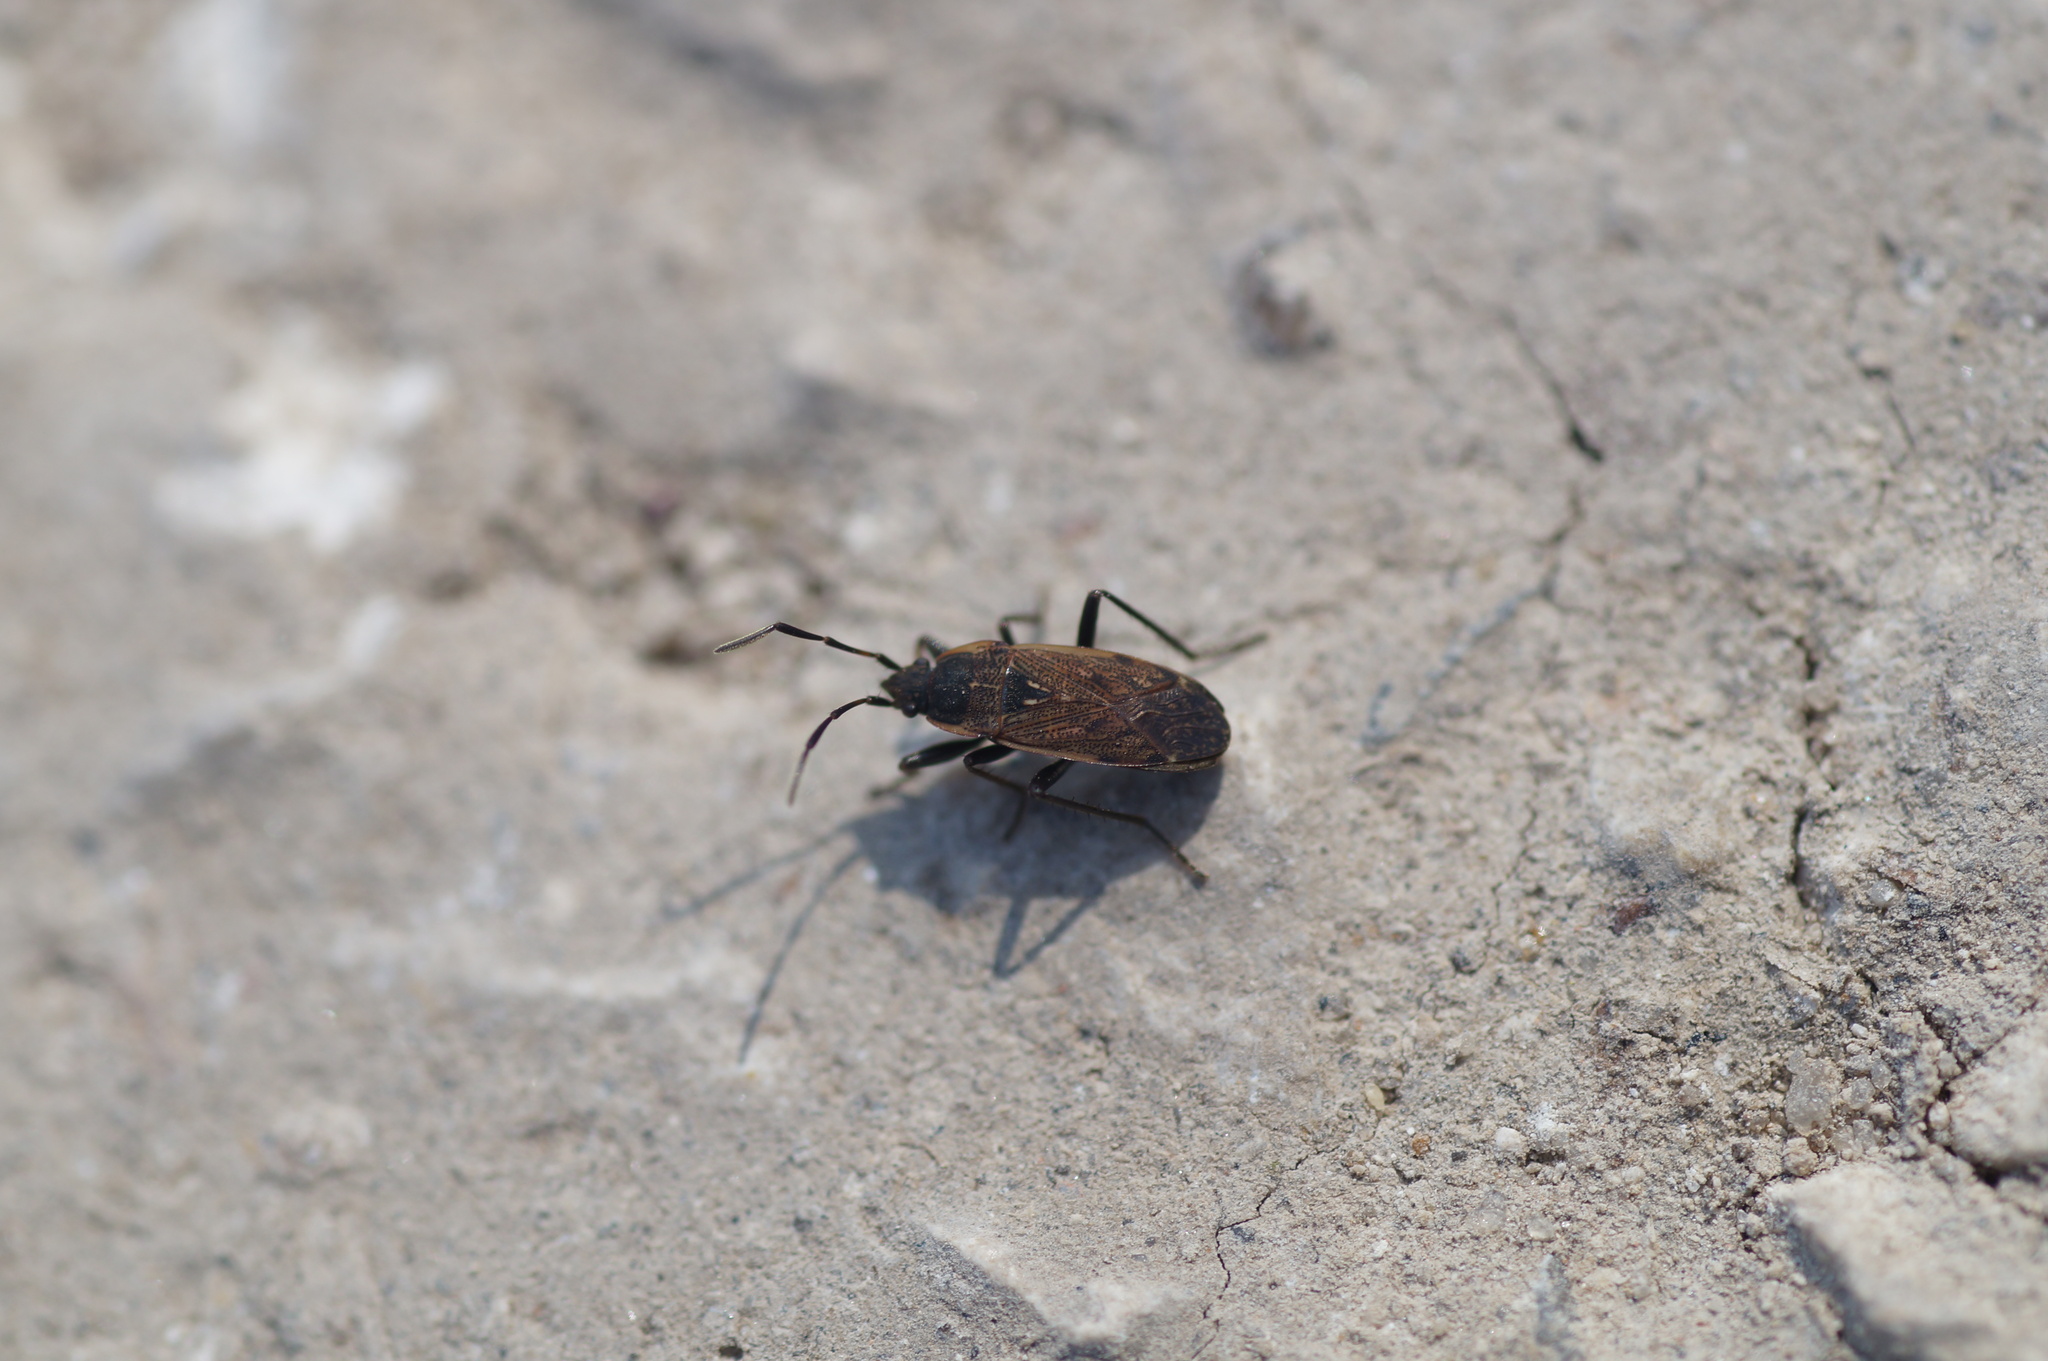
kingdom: Animalia
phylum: Arthropoda
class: Insecta
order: Hemiptera
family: Rhyparochromidae
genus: Panaorus
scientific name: Panaorus adspersus
